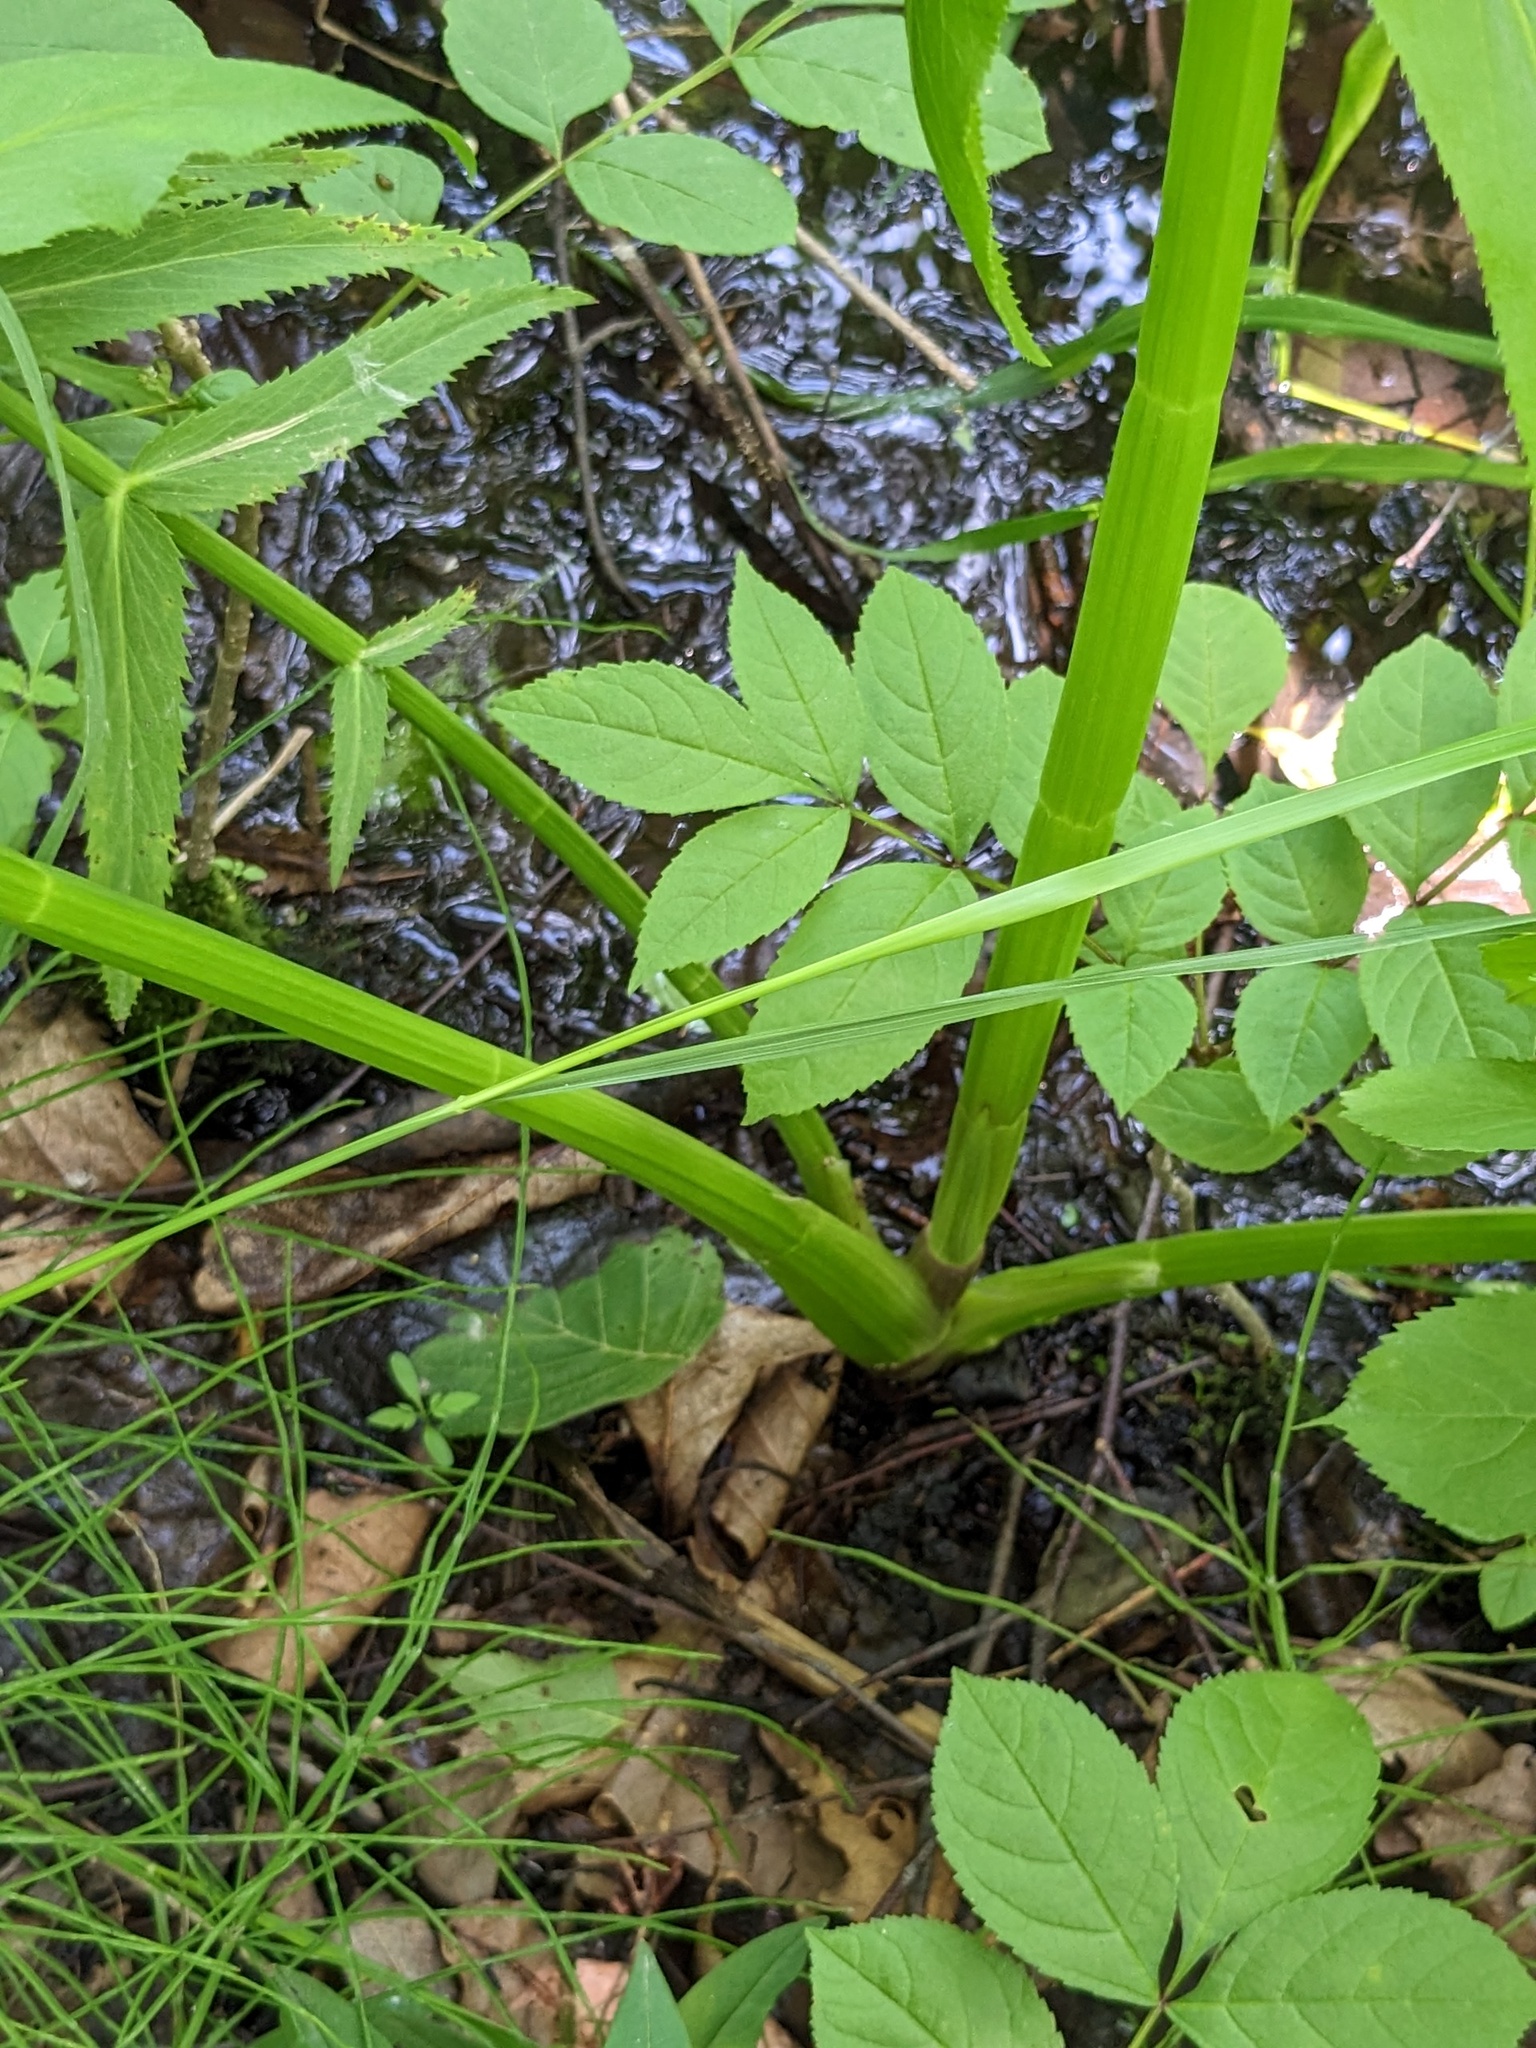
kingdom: Plantae
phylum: Tracheophyta
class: Magnoliopsida
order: Apiales
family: Apiaceae
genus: Sium
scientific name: Sium suave
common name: Hemlock water-parsnip
